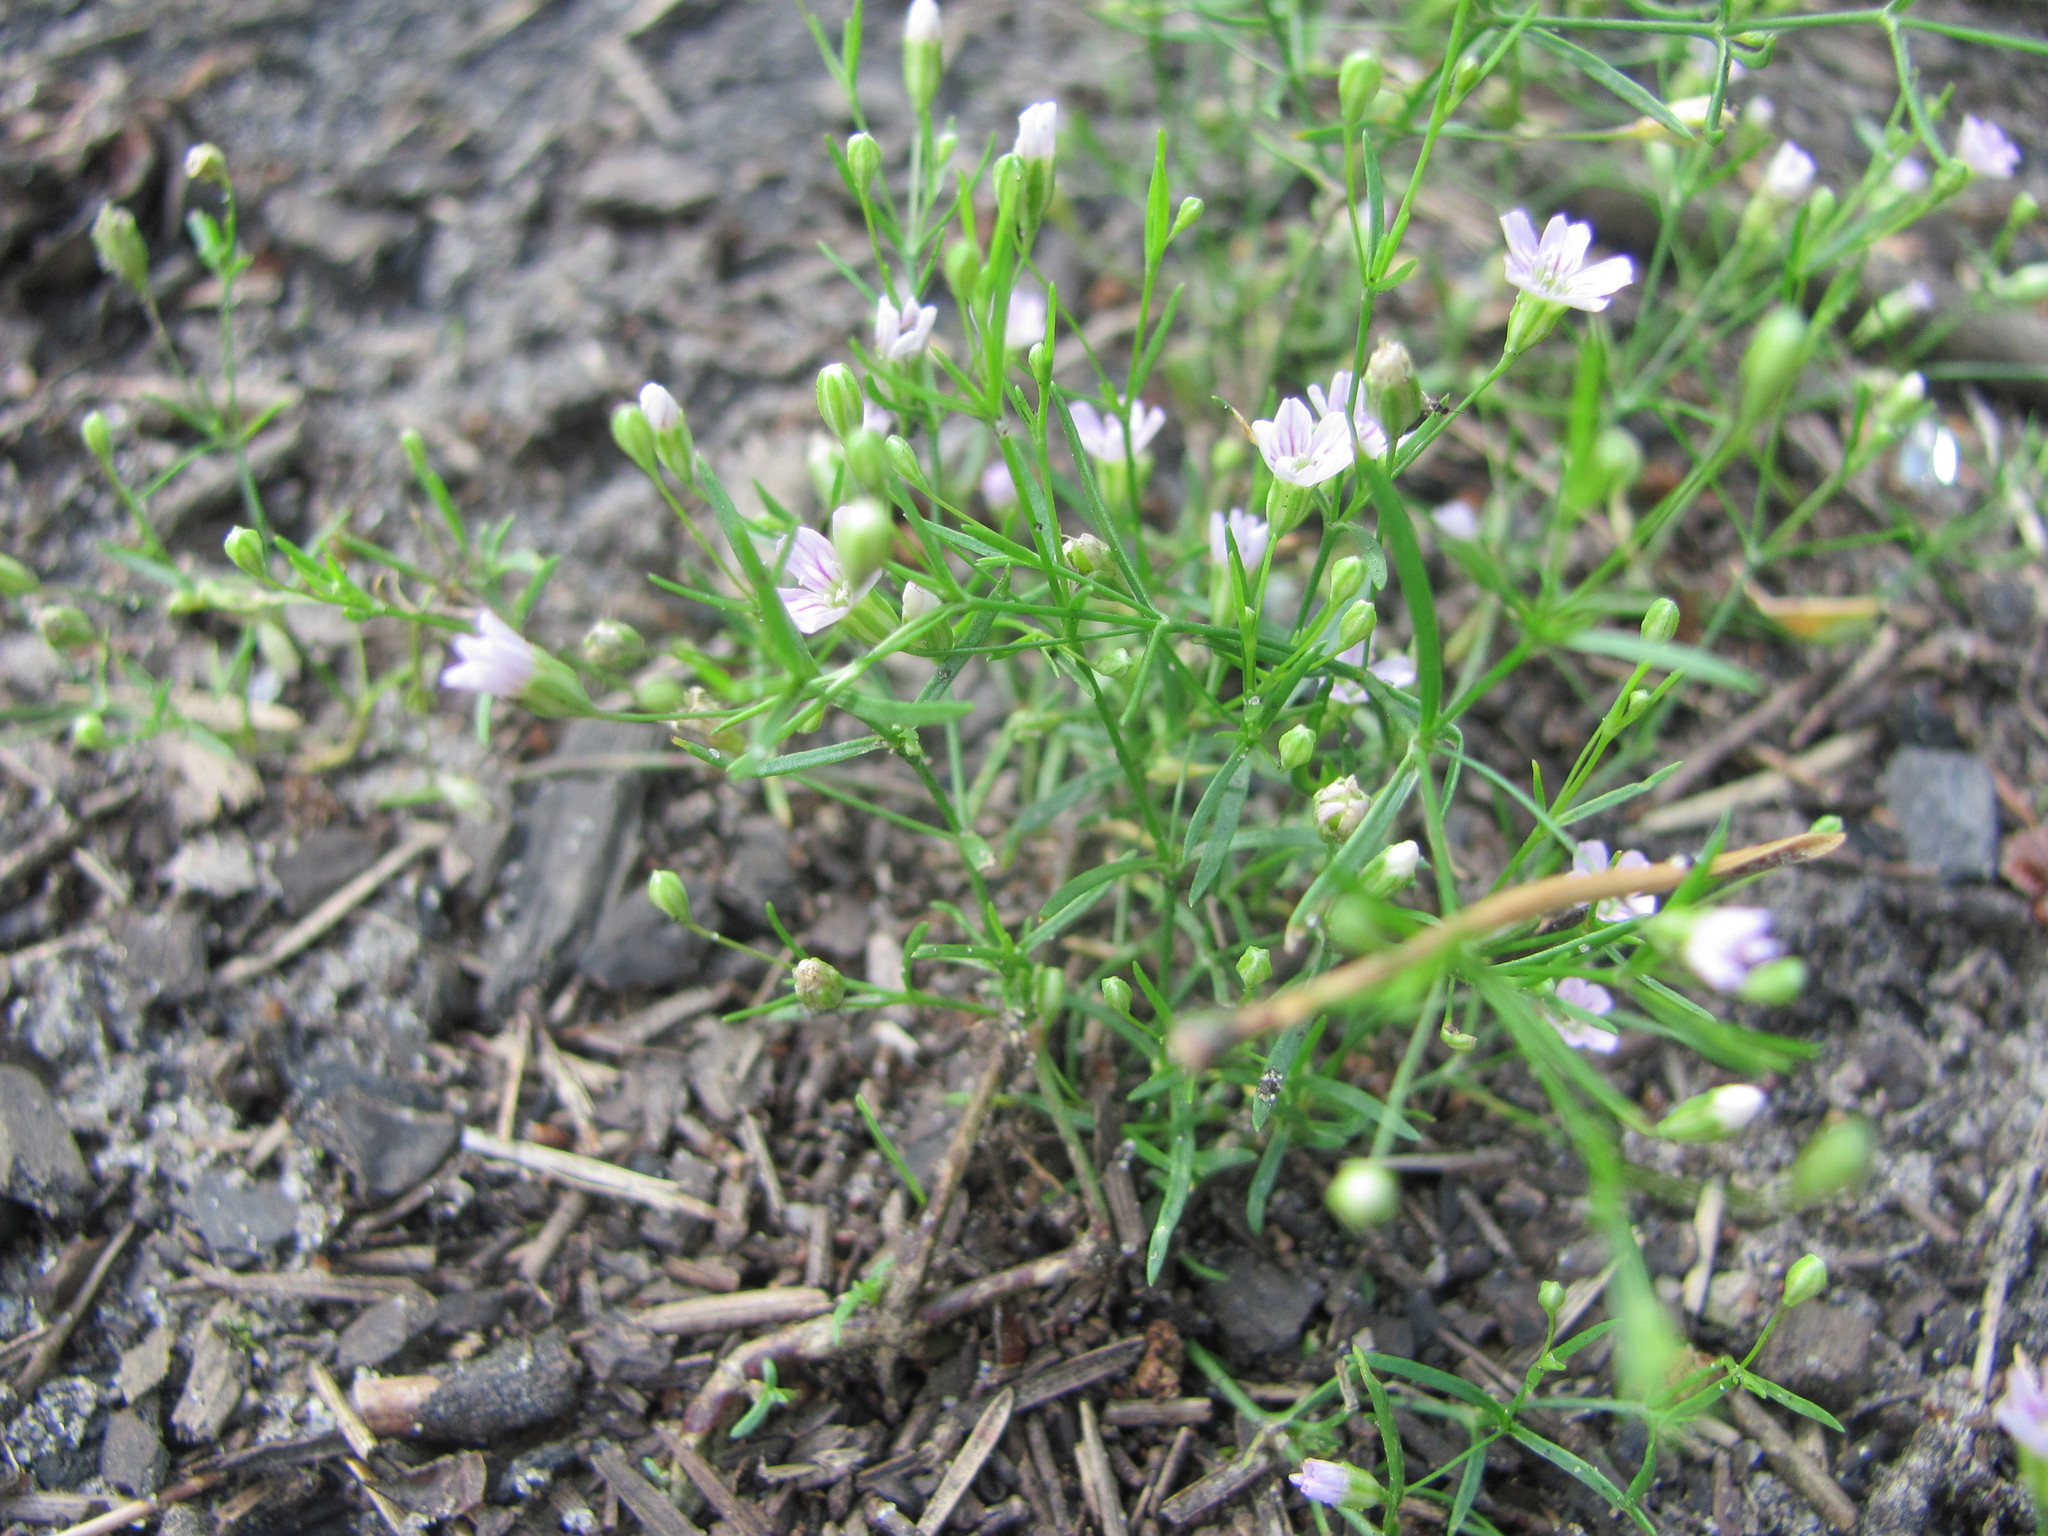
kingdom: Plantae
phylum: Tracheophyta
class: Magnoliopsida
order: Caryophyllales
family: Caryophyllaceae
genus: Psammophiliella
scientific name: Psammophiliella muralis
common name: Cushion baby's-breath
